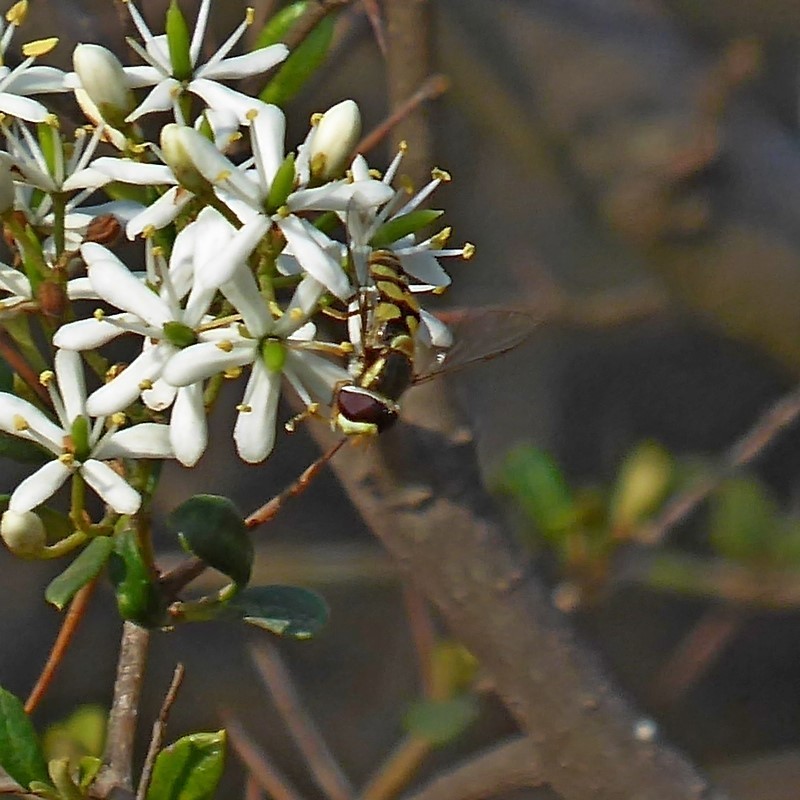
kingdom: Animalia
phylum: Arthropoda
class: Insecta
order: Diptera
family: Syrphidae
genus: Simosyrphus
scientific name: Simosyrphus grandicornis
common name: Hoverfly
